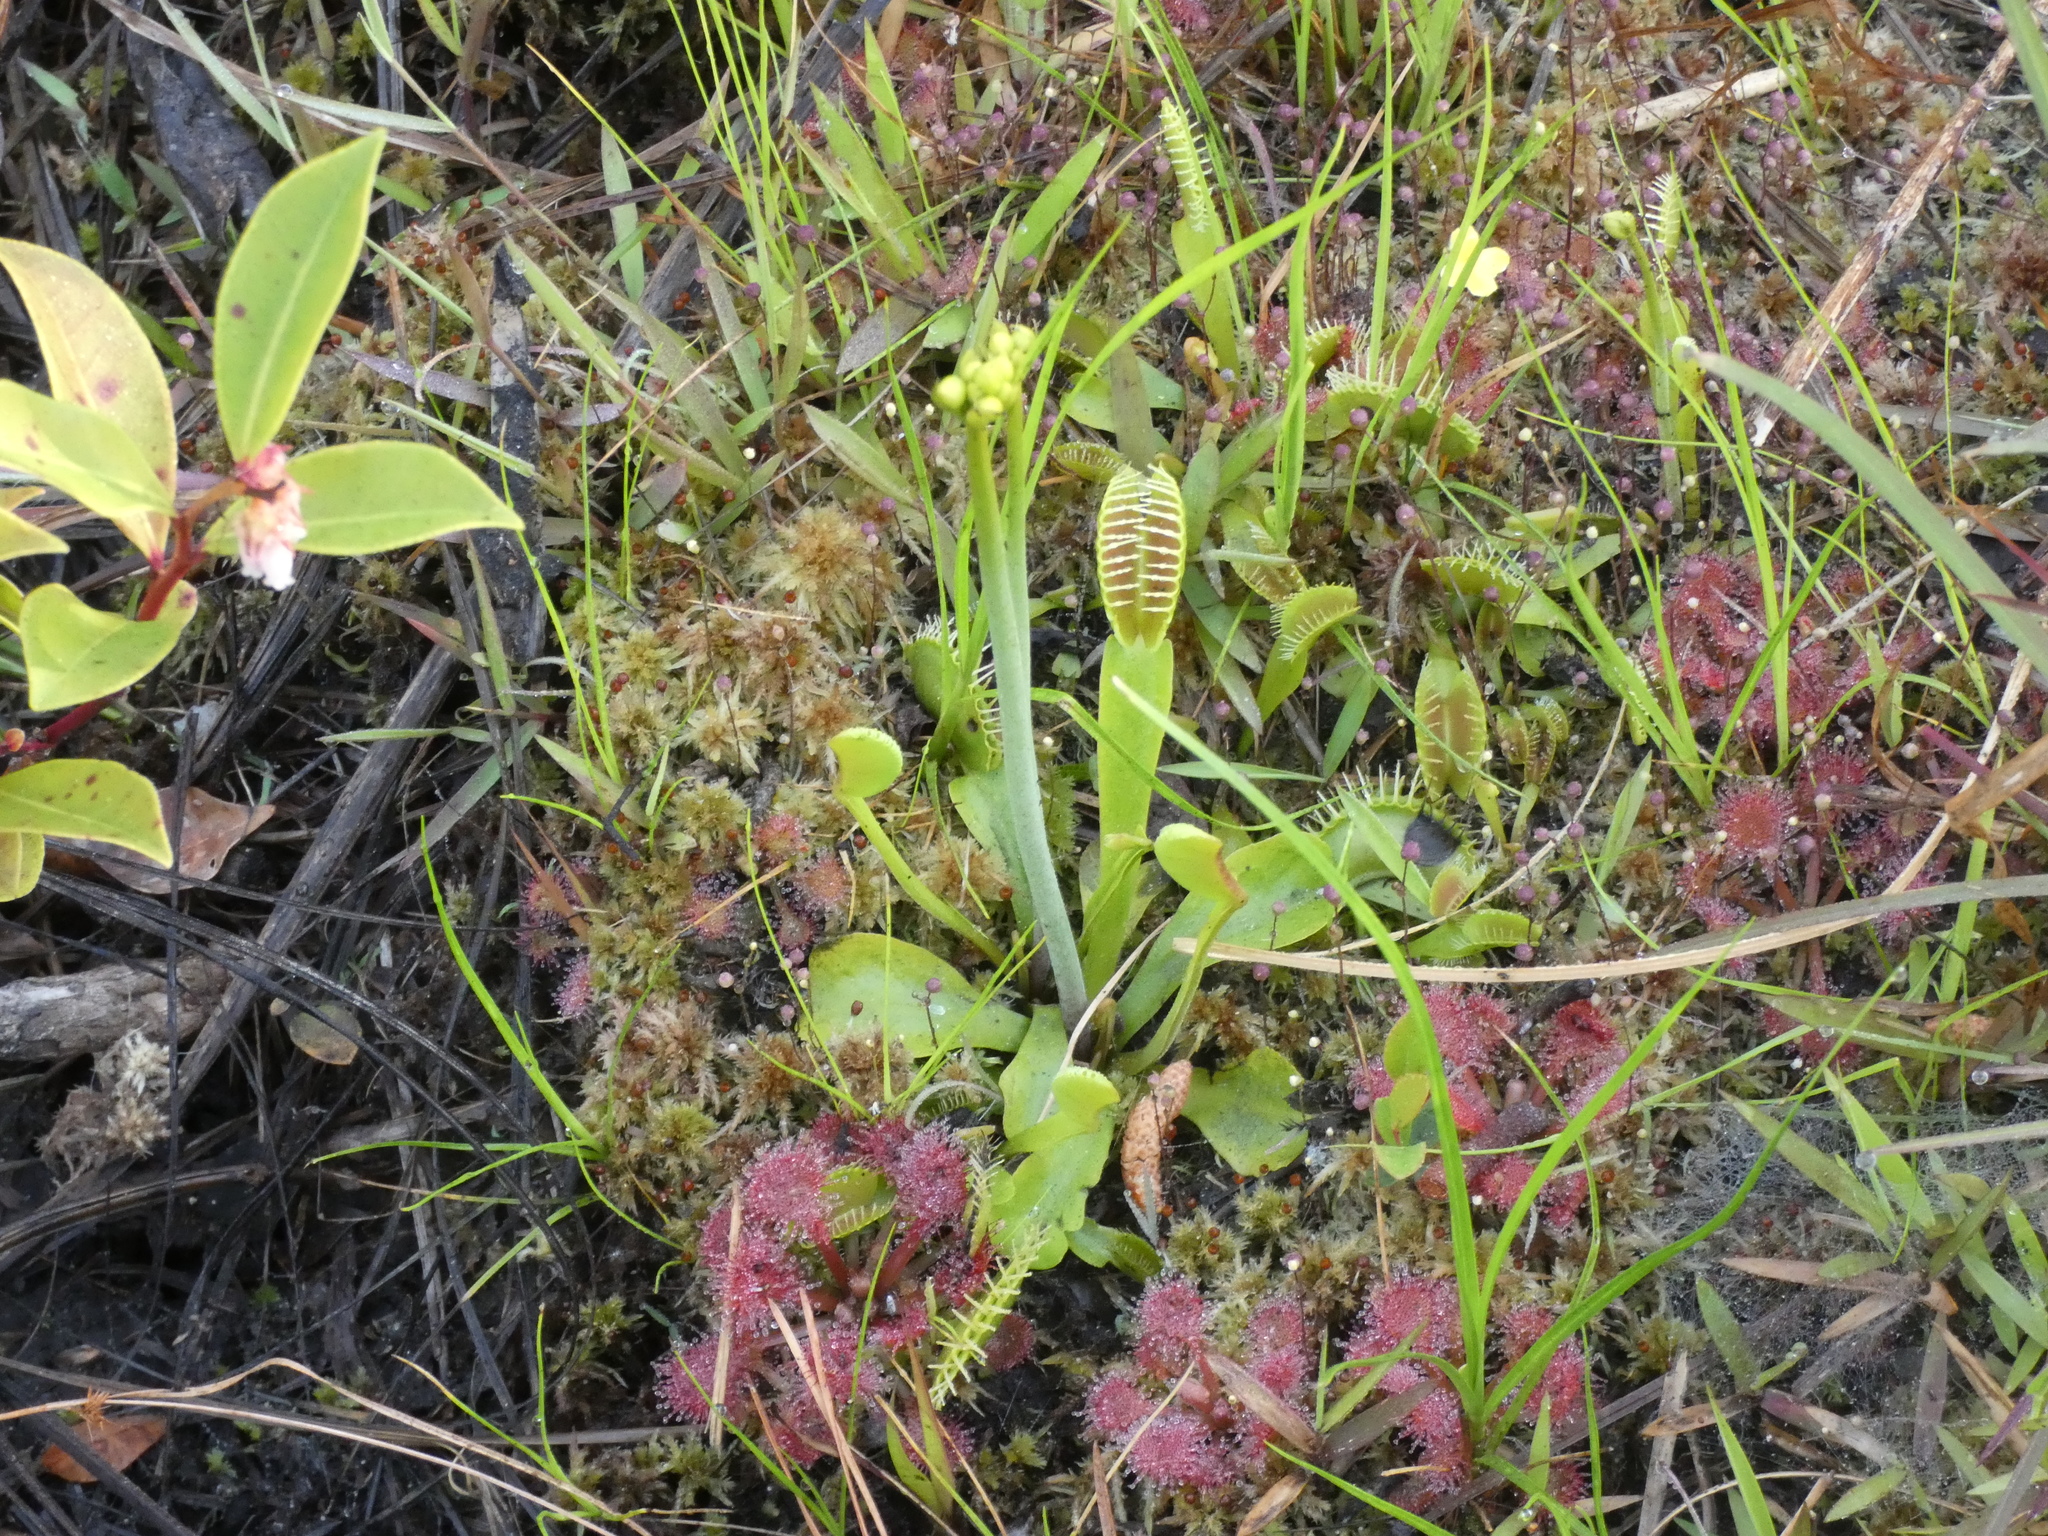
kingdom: Plantae
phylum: Tracheophyta
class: Magnoliopsida
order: Caryophyllales
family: Droseraceae
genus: Dionaea
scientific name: Dionaea muscipula
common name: Venus flytrap
